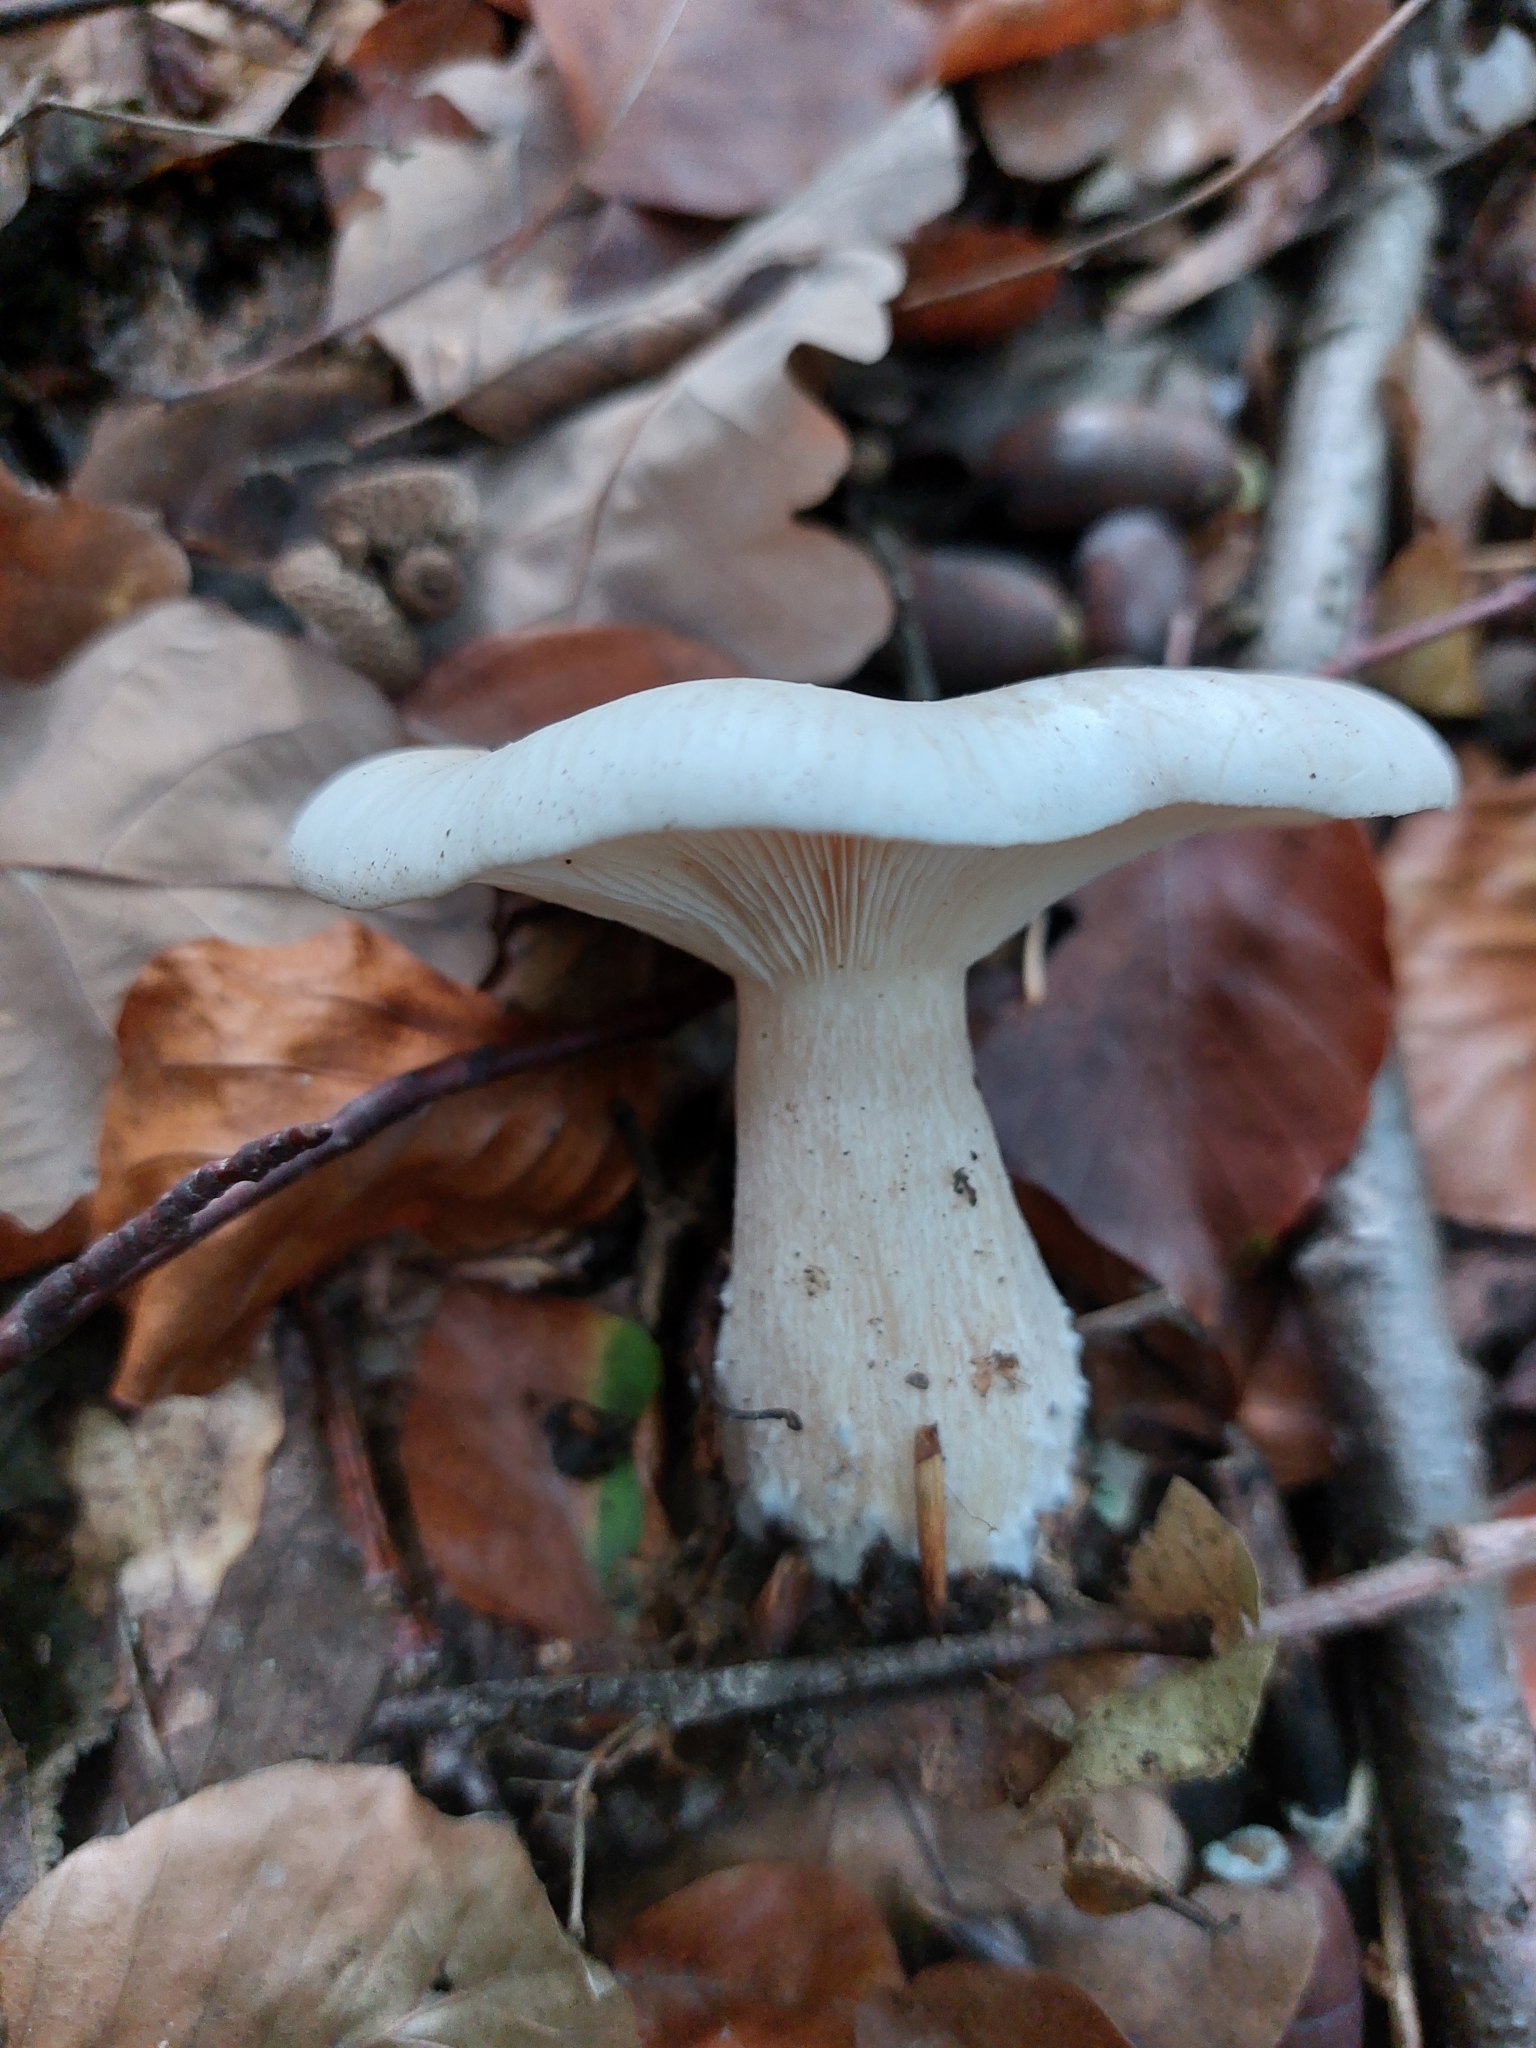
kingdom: Fungi
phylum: Basidiomycota
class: Agaricomycetes
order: Agaricales
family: Tricholomataceae
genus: Clitocybe
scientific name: Clitocybe nebularis
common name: Clouded agaric
